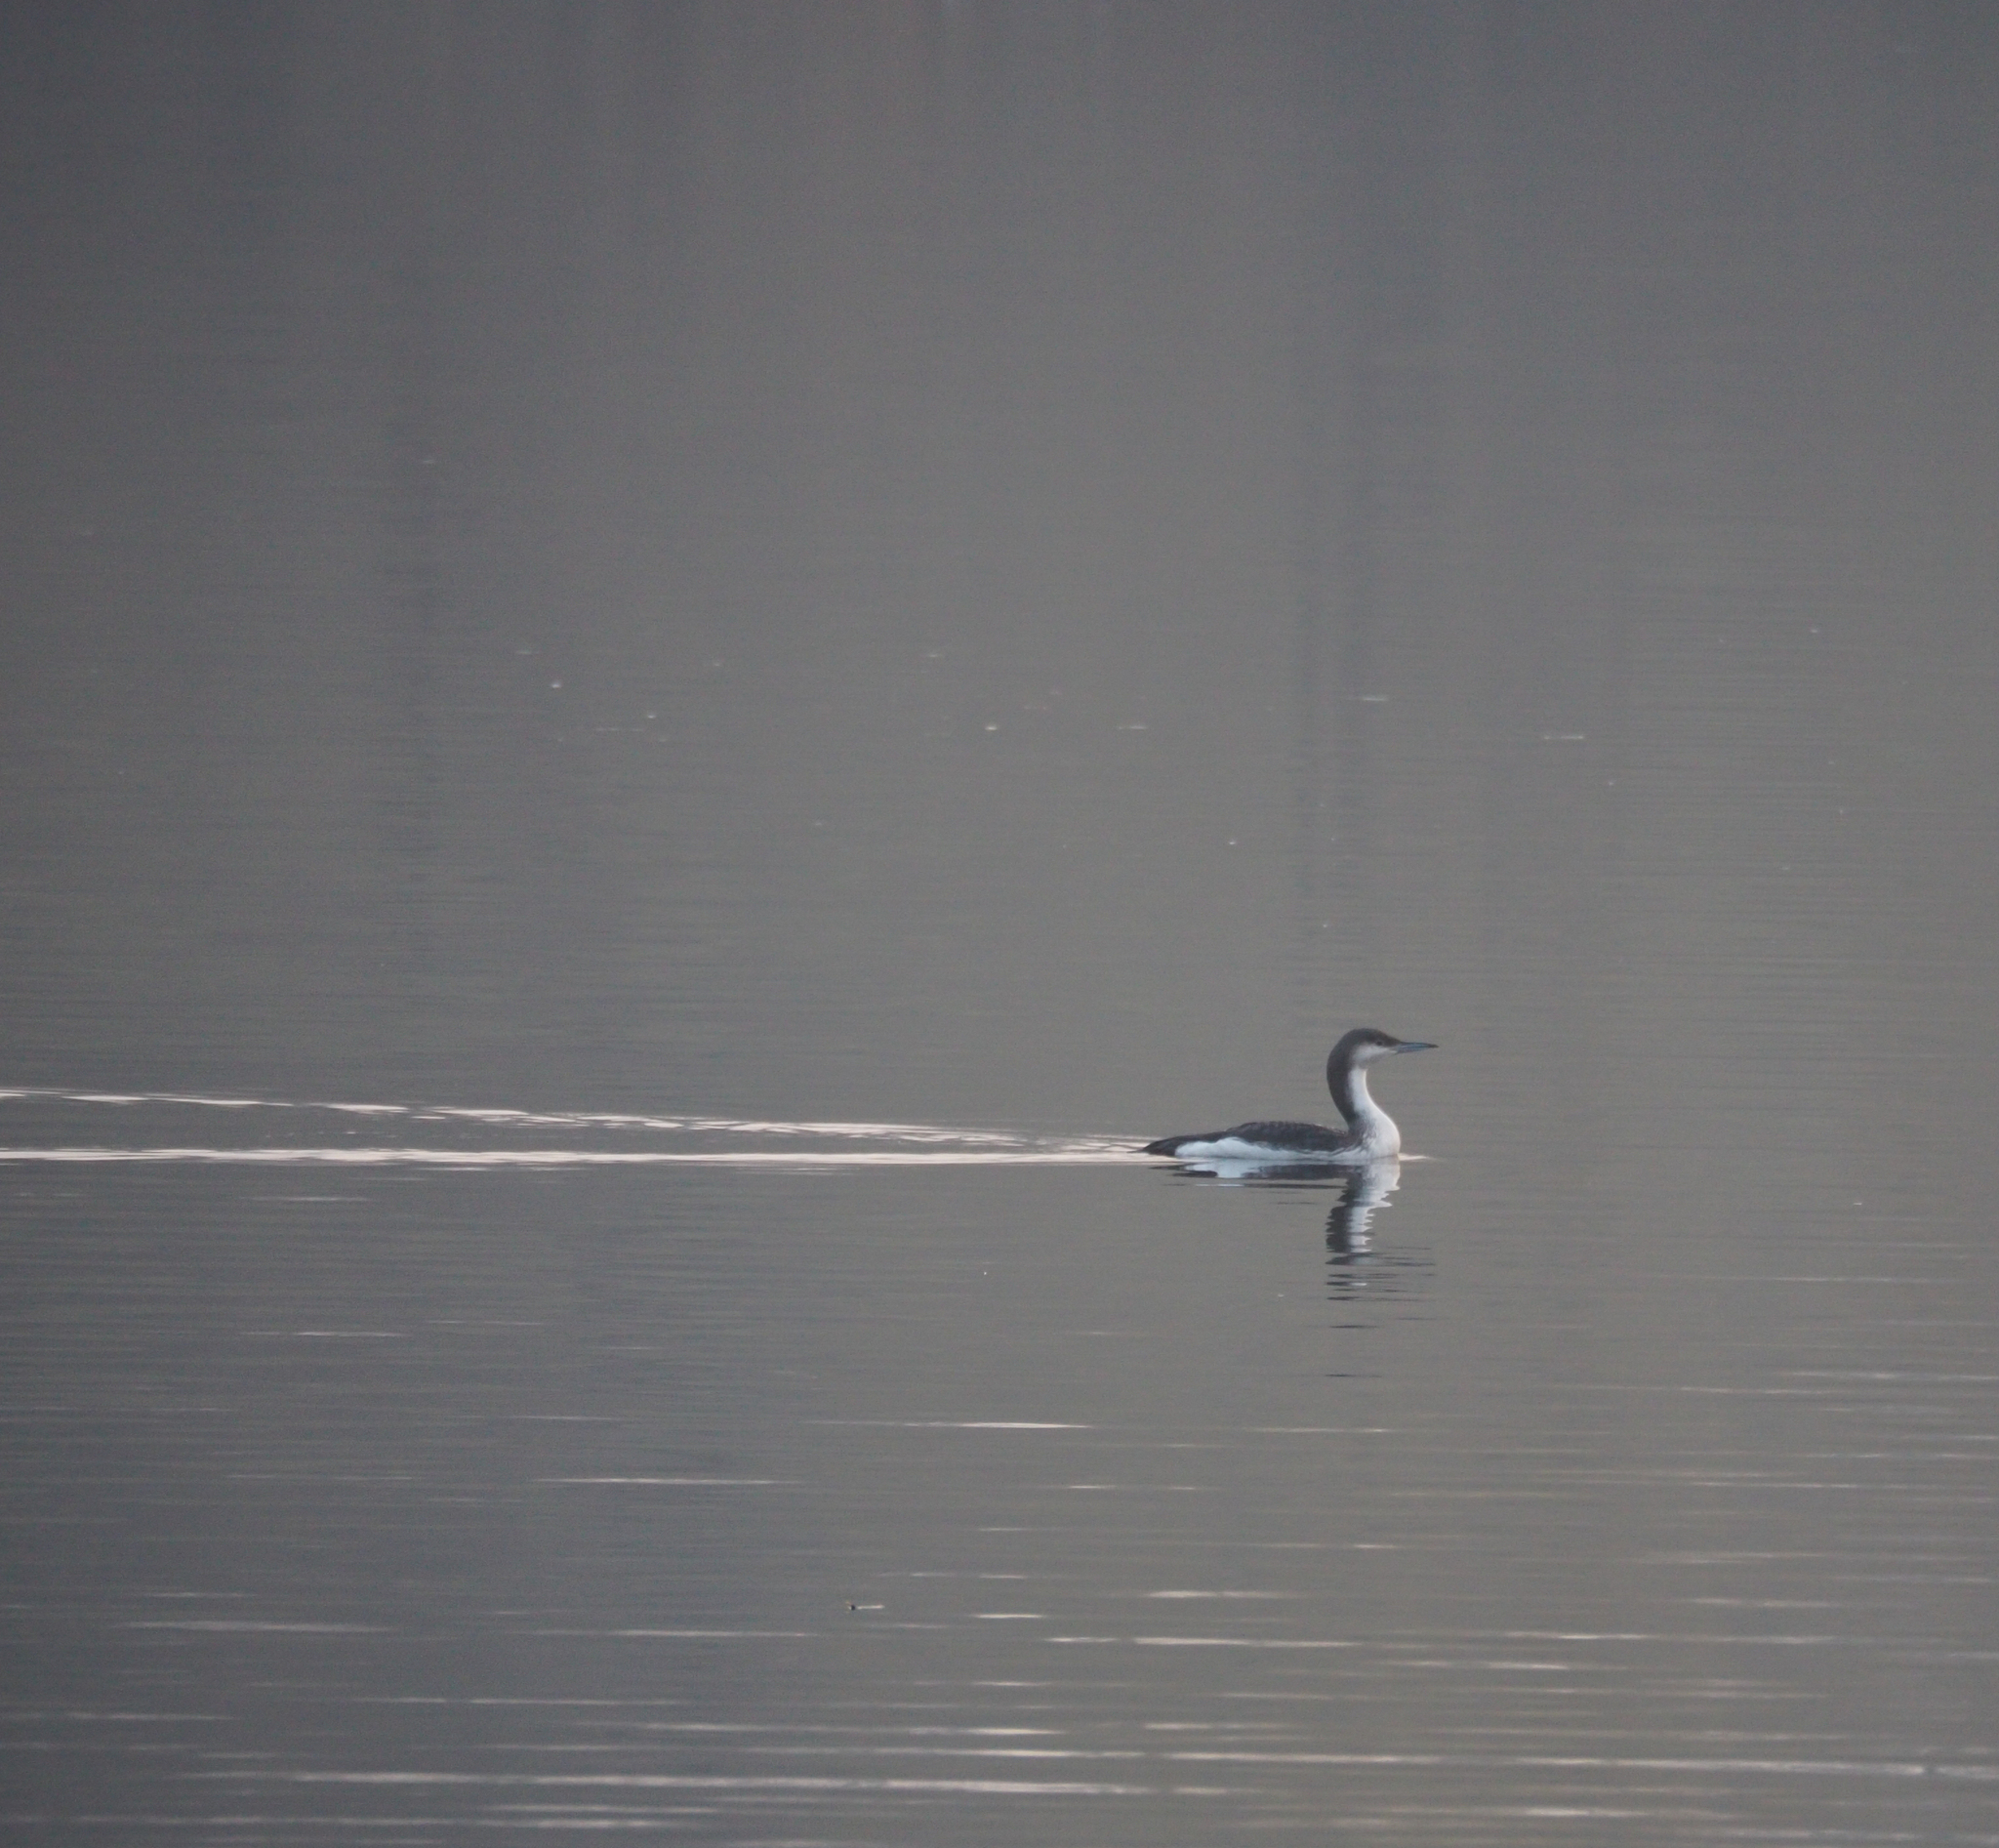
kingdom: Animalia
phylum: Chordata
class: Aves
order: Gaviiformes
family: Gaviidae
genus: Gavia
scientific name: Gavia arctica
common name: Black-throated loon
